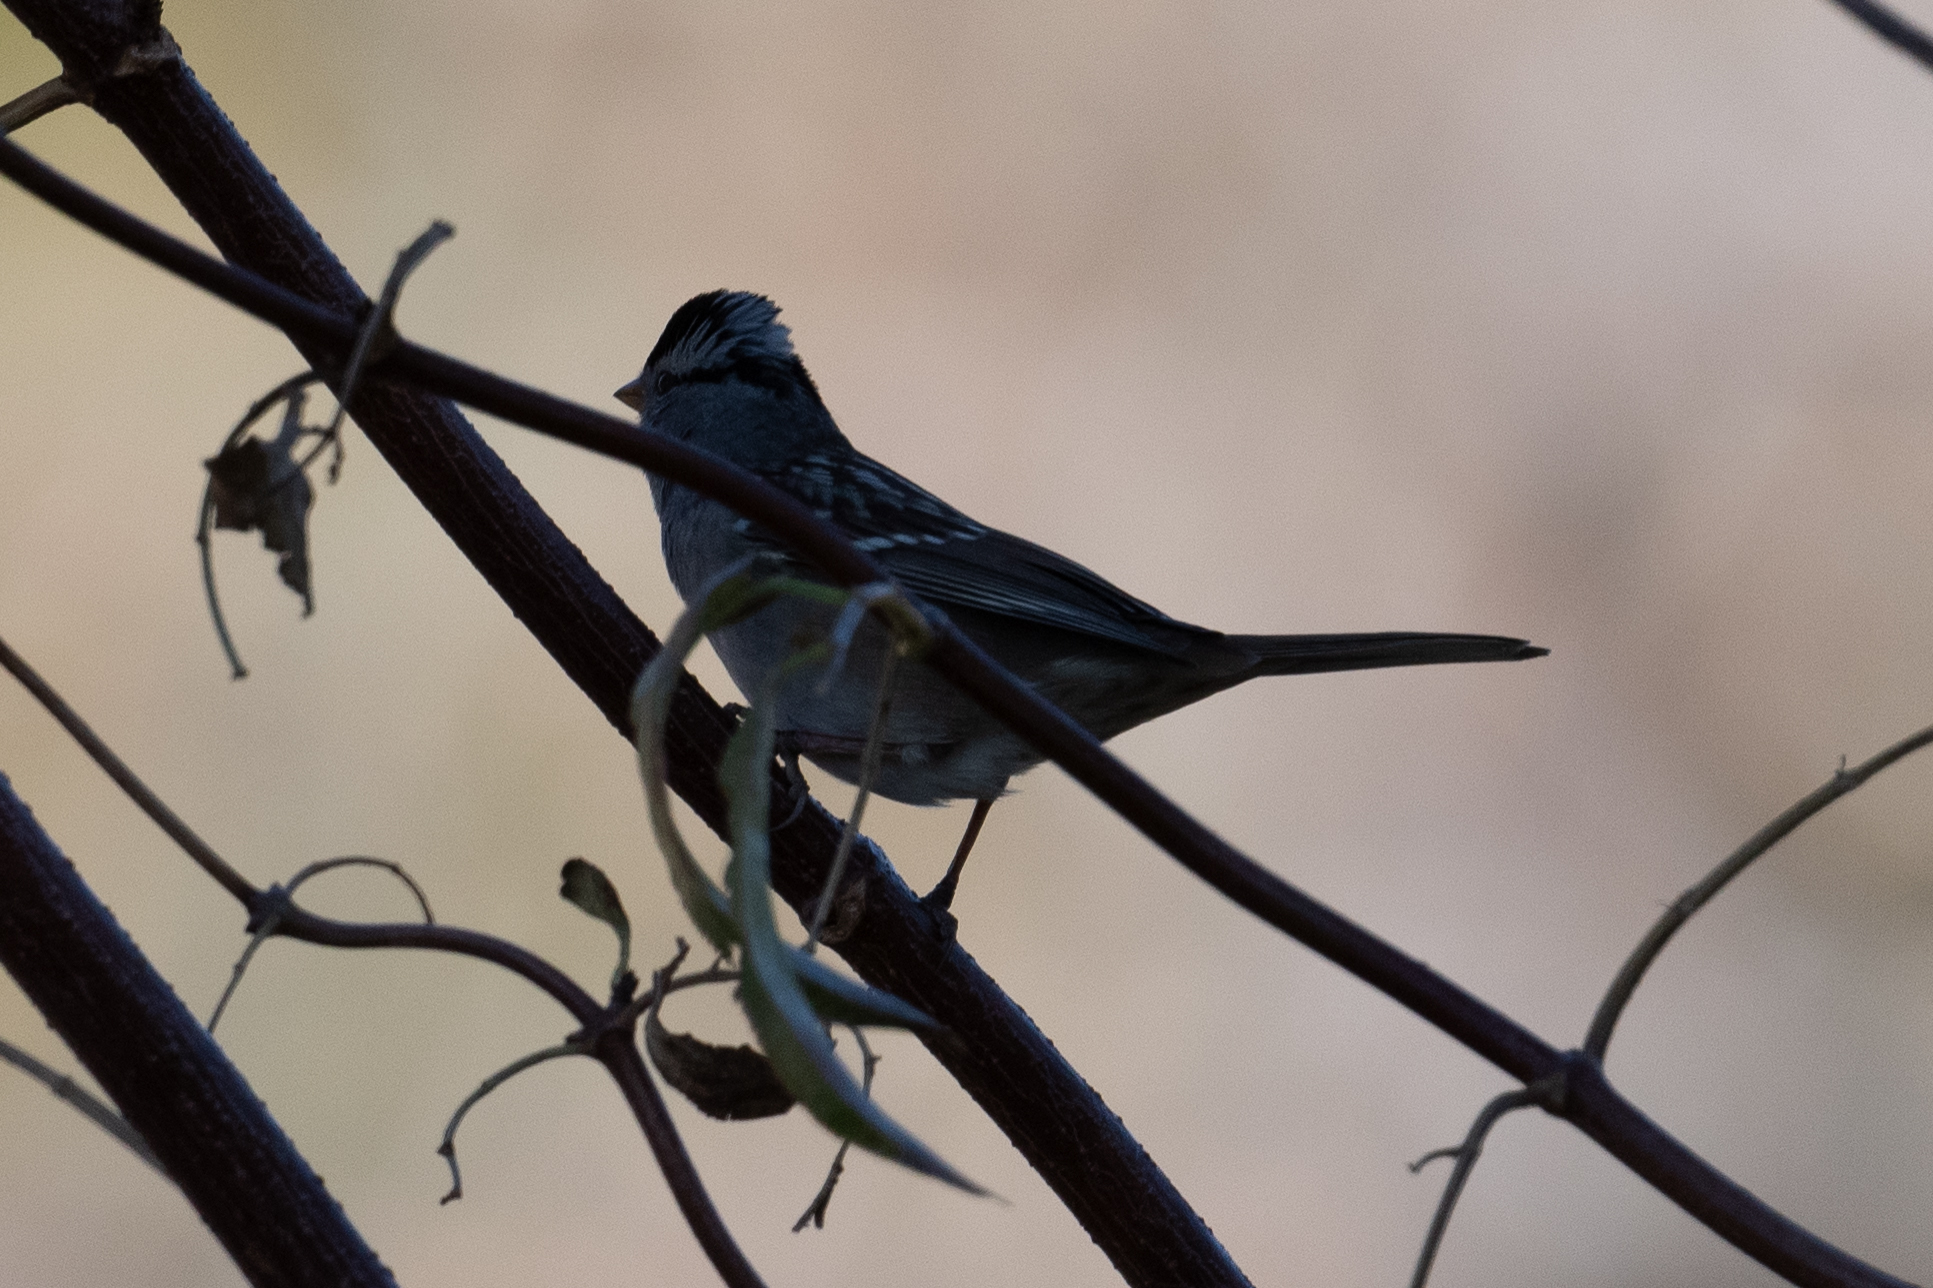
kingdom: Animalia
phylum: Chordata
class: Aves
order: Passeriformes
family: Passerellidae
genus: Zonotrichia
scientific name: Zonotrichia leucophrys
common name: White-crowned sparrow
